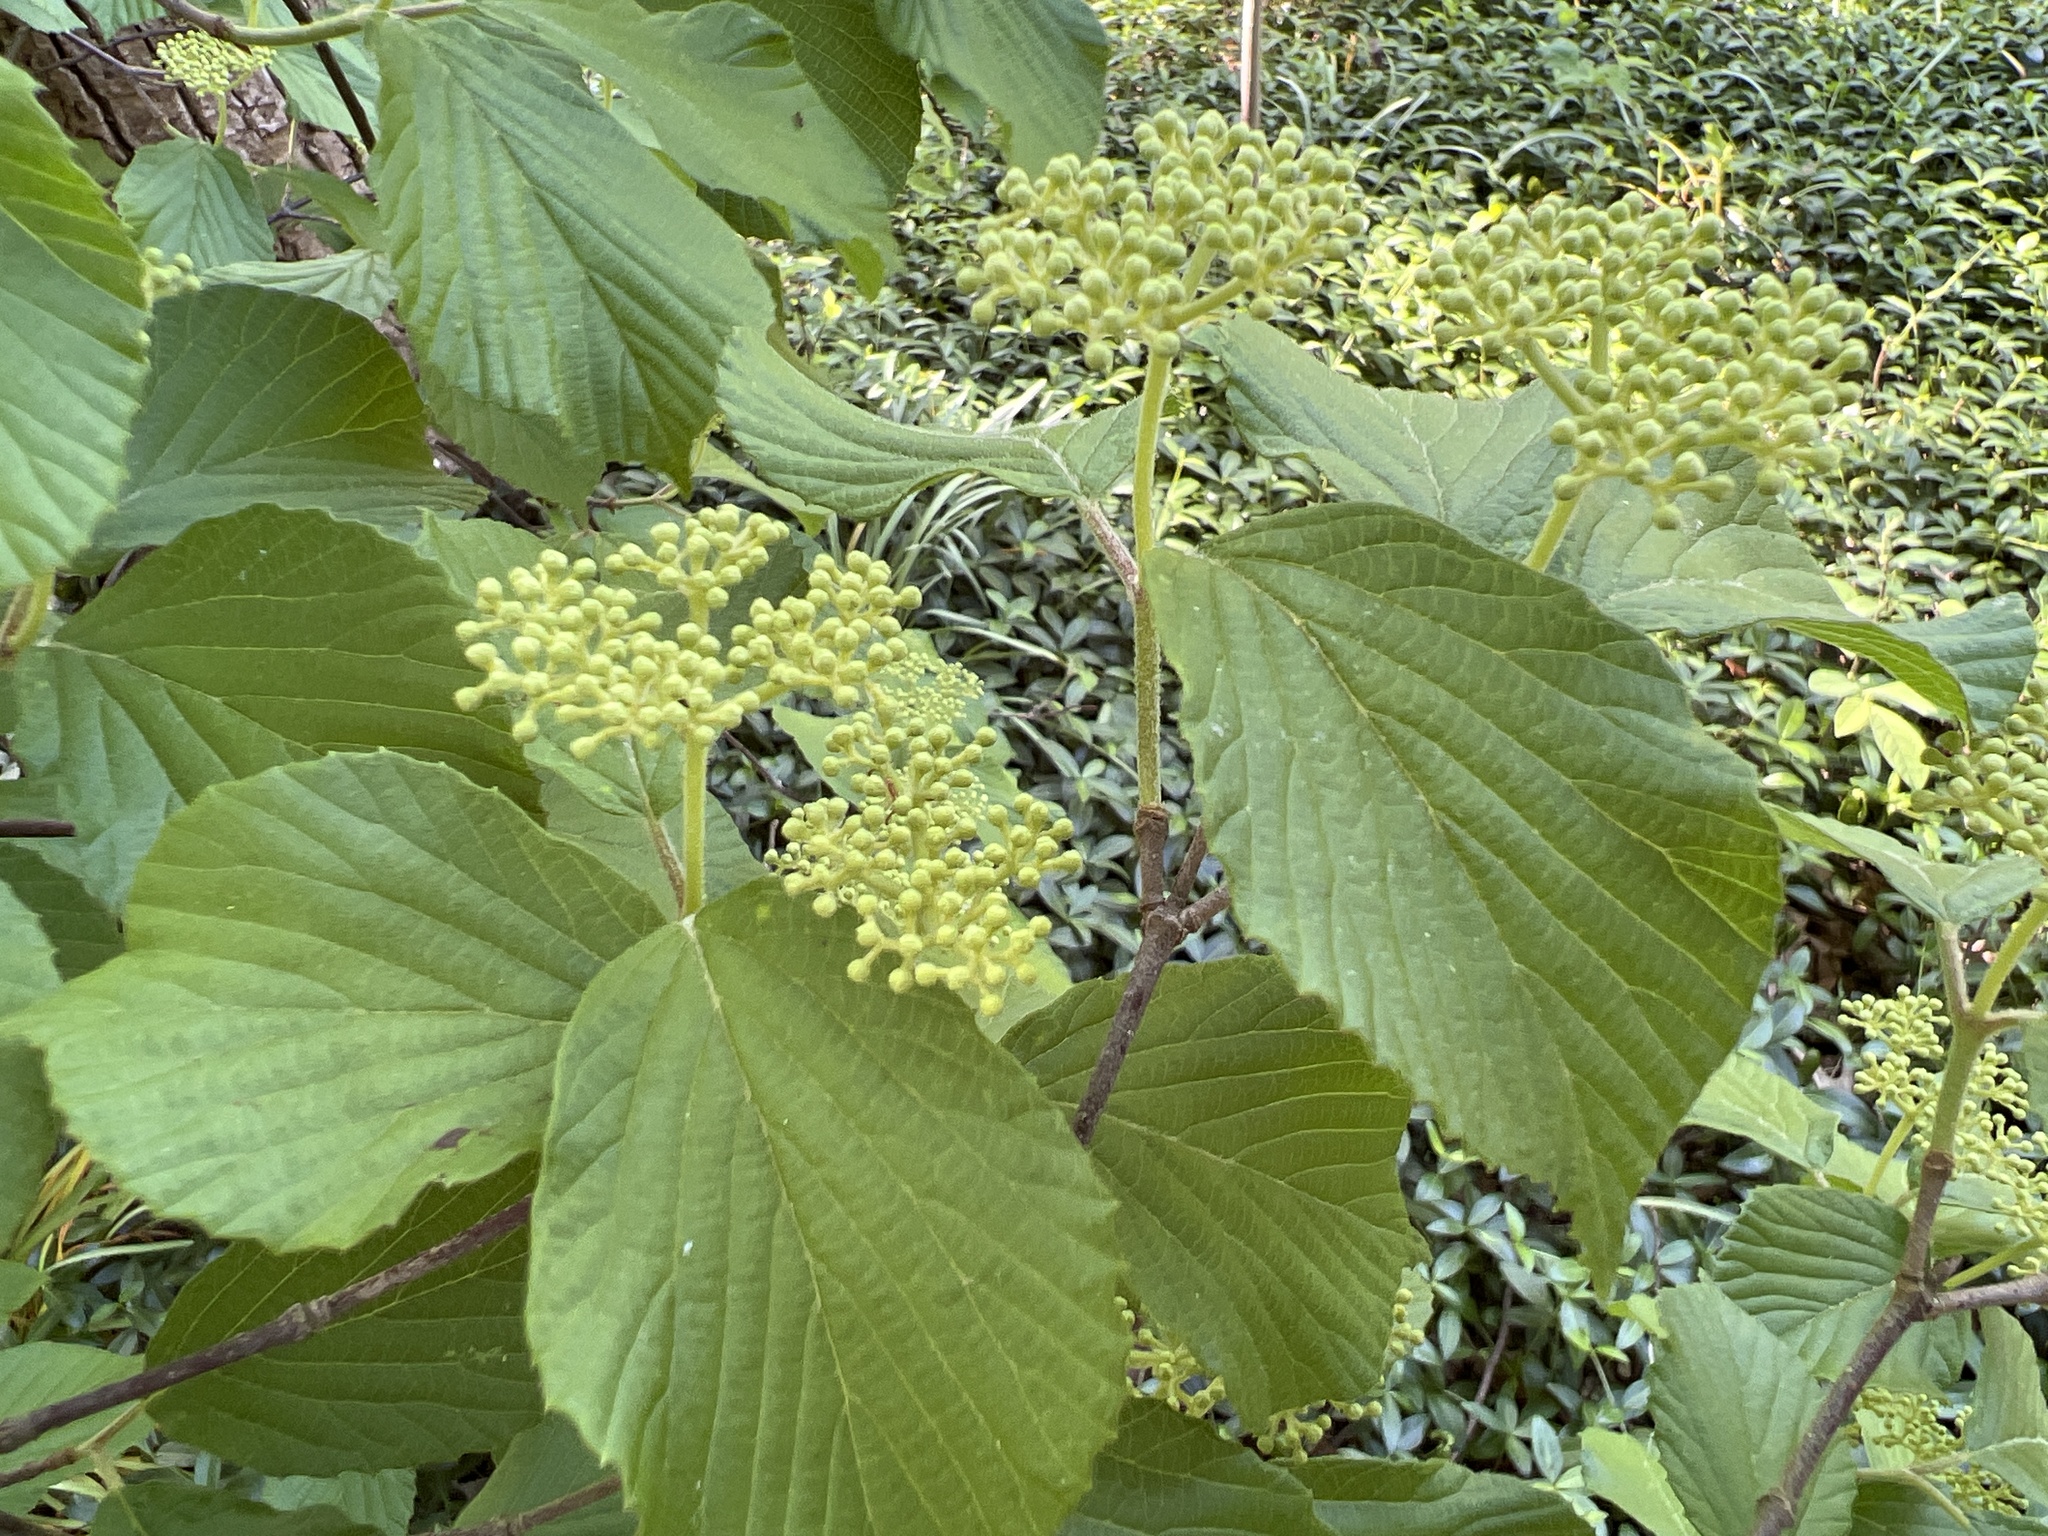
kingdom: Plantae
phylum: Tracheophyta
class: Magnoliopsida
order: Dipsacales
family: Viburnaceae
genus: Viburnum
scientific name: Viburnum dilatatum
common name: Linden arrowwood
